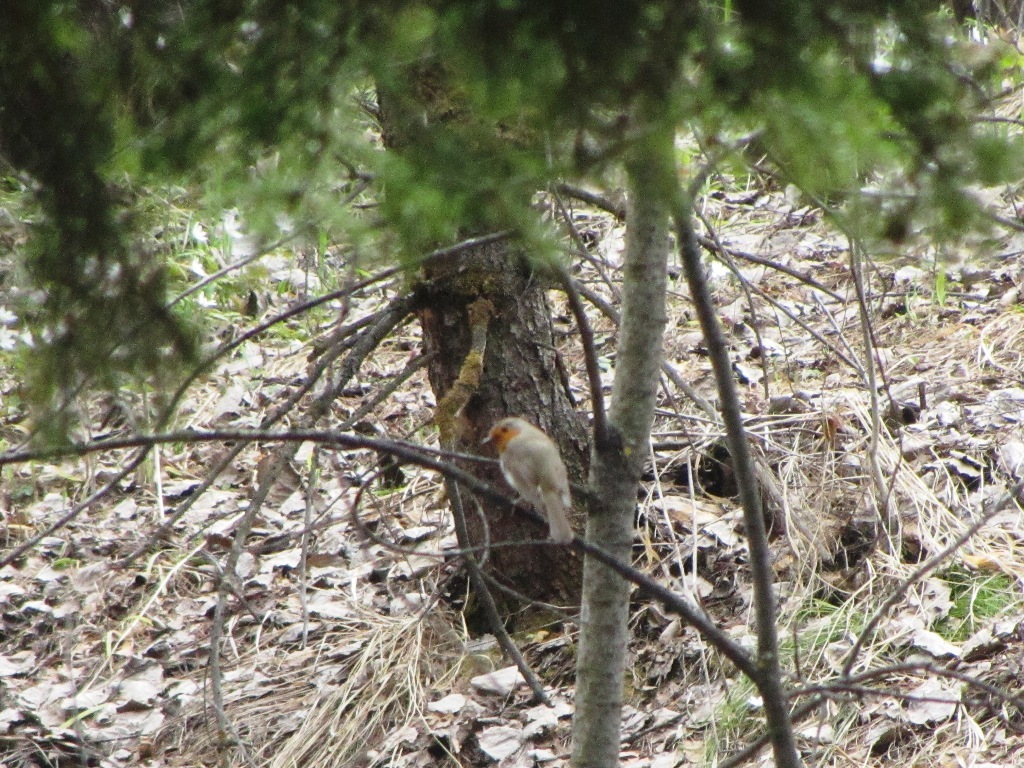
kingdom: Animalia
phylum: Chordata
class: Aves
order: Passeriformes
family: Muscicapidae
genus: Erithacus
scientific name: Erithacus rubecula
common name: European robin
